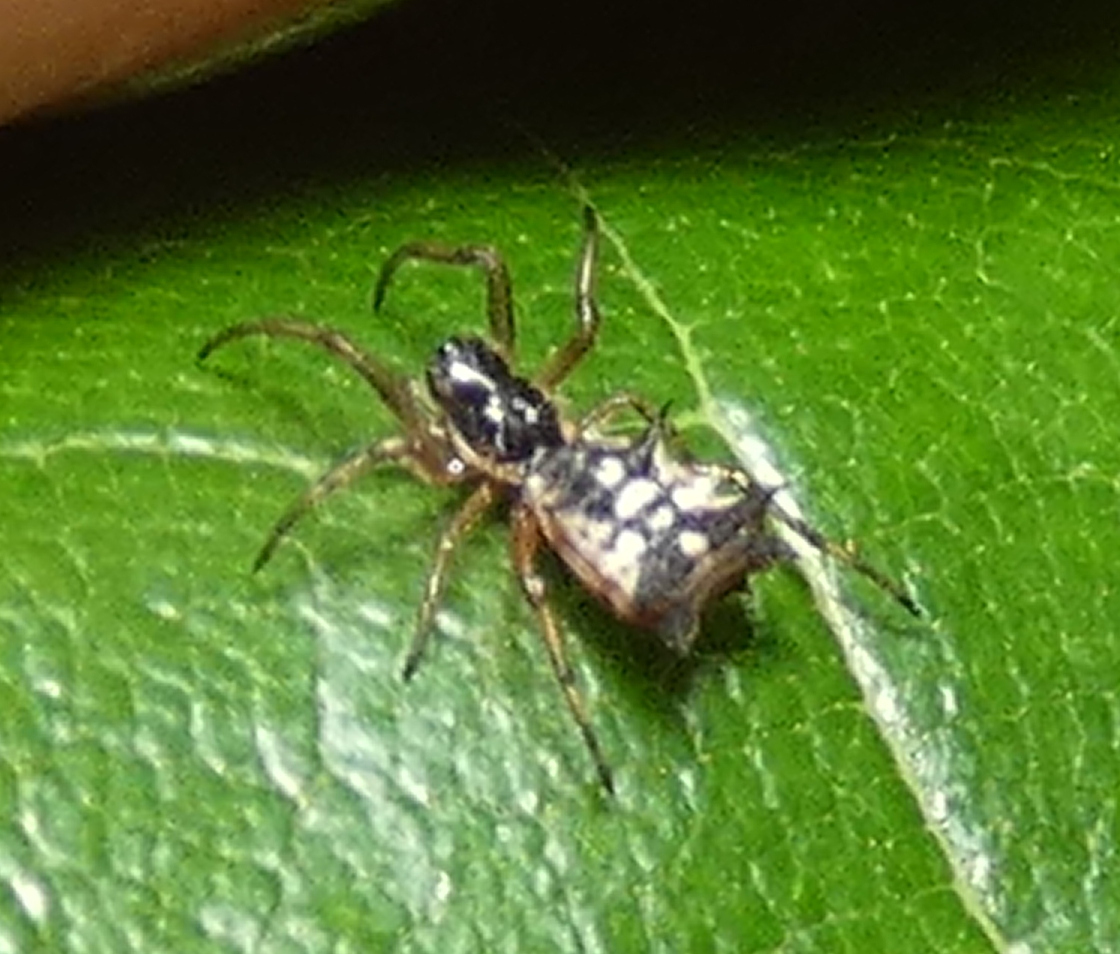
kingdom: Animalia
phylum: Arthropoda
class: Arachnida
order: Araneae
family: Araneidae
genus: Micrathena
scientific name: Micrathena picta
